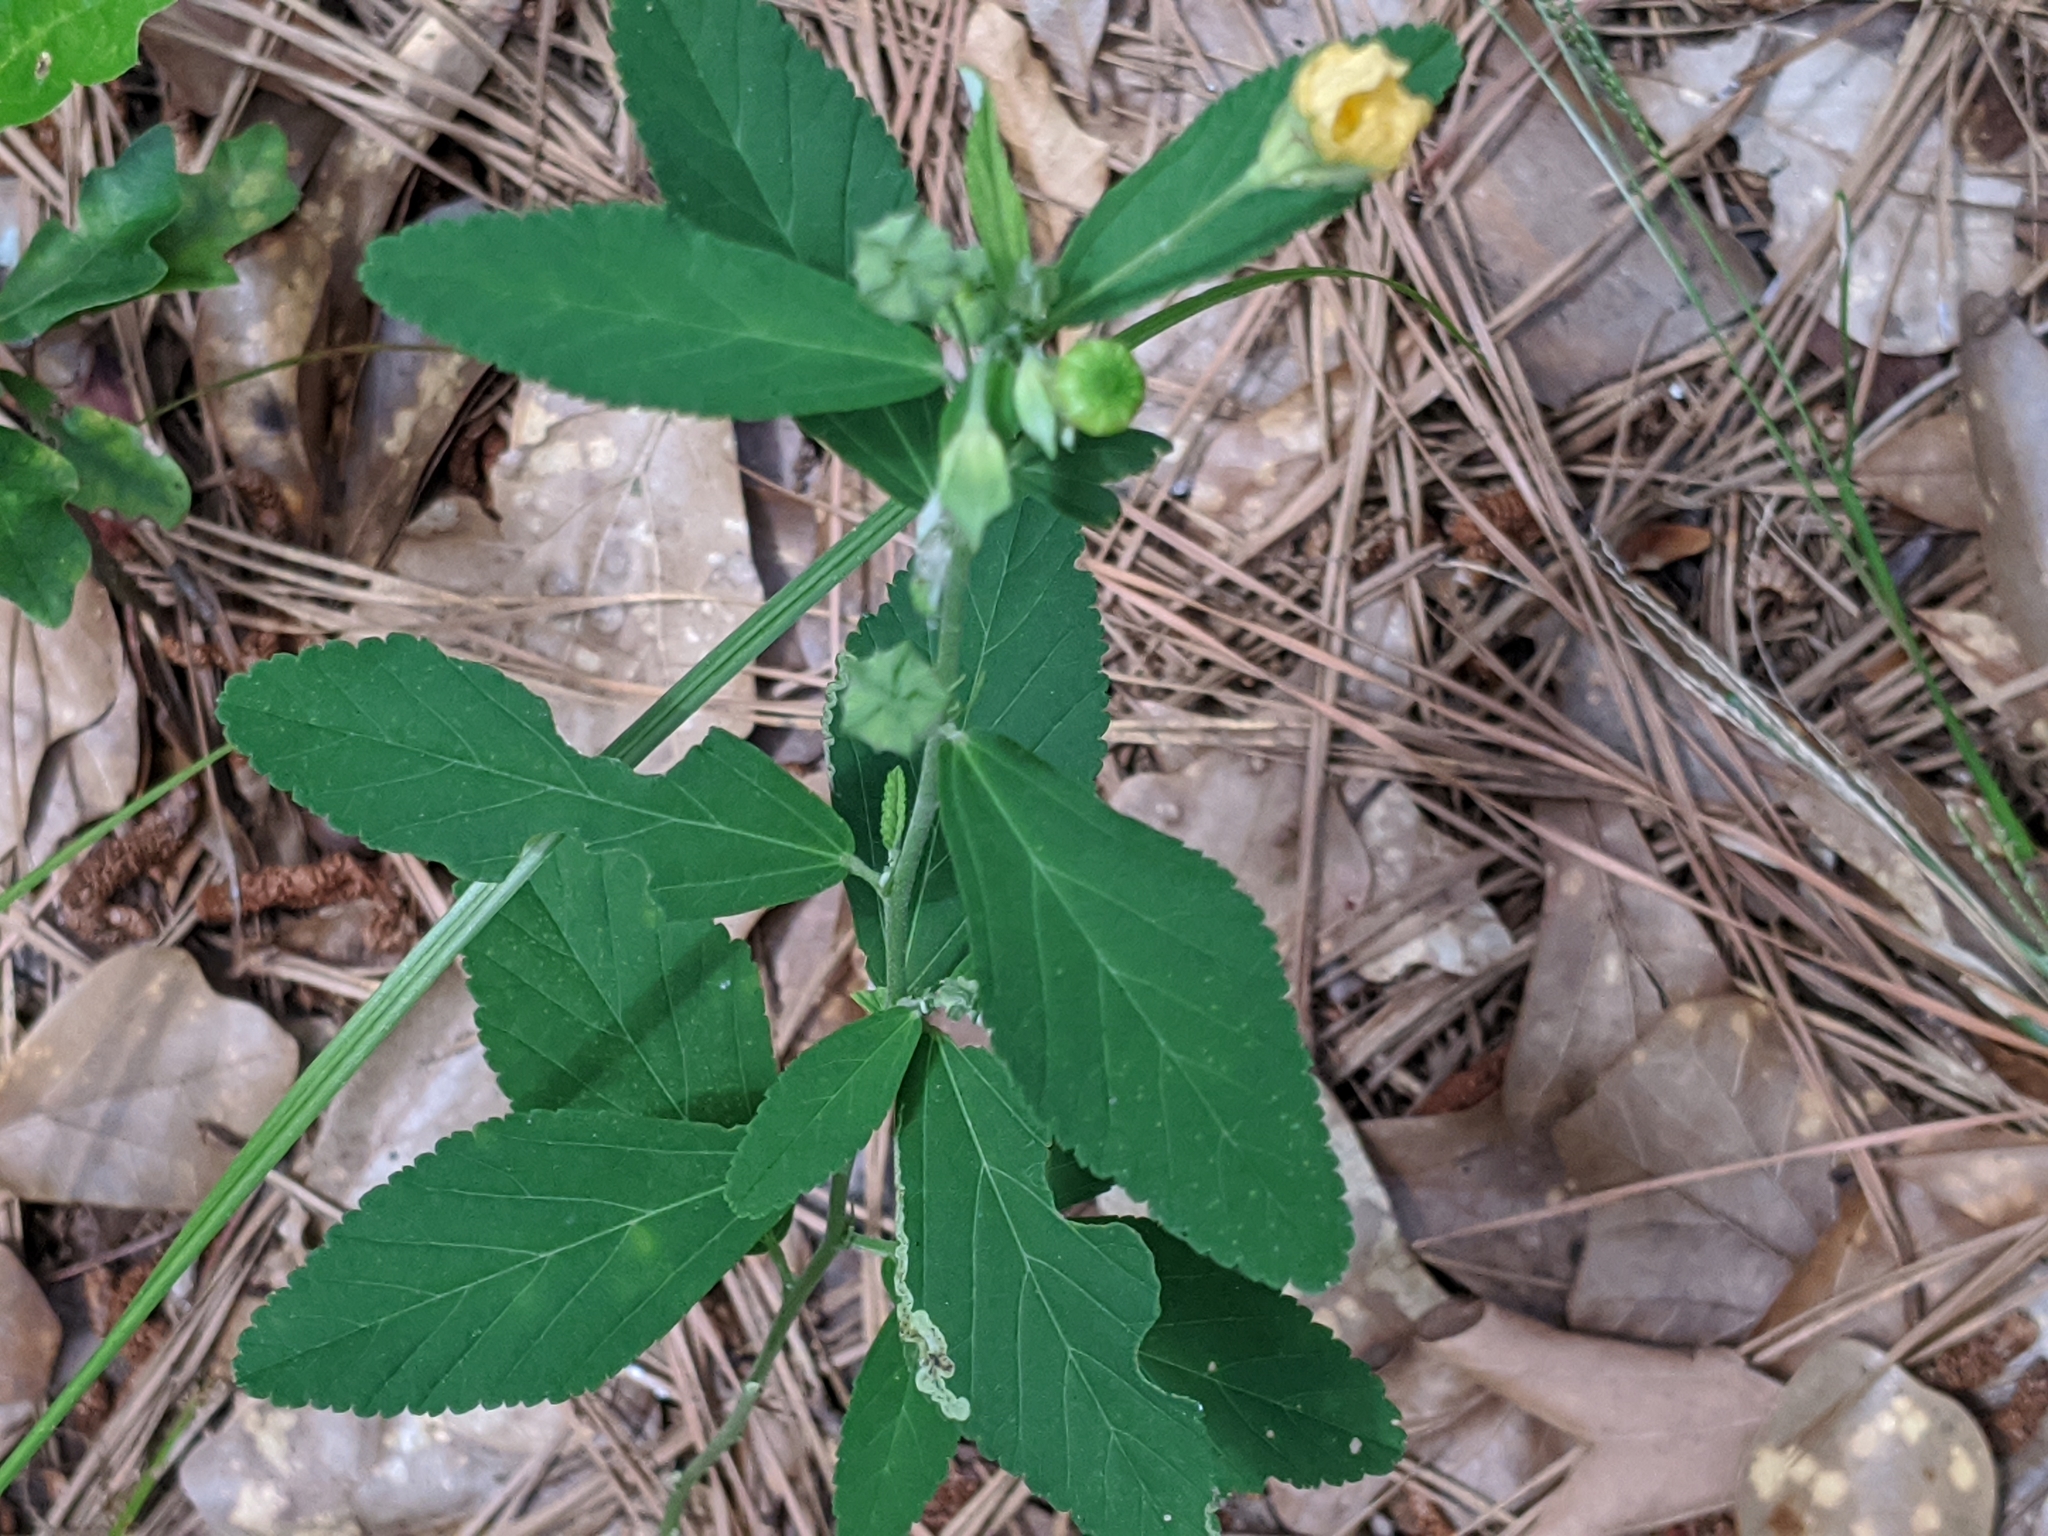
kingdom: Plantae
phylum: Tracheophyta
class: Magnoliopsida
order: Malvales
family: Malvaceae
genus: Sida
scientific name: Sida rhombifolia
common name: Queensland-hemp
